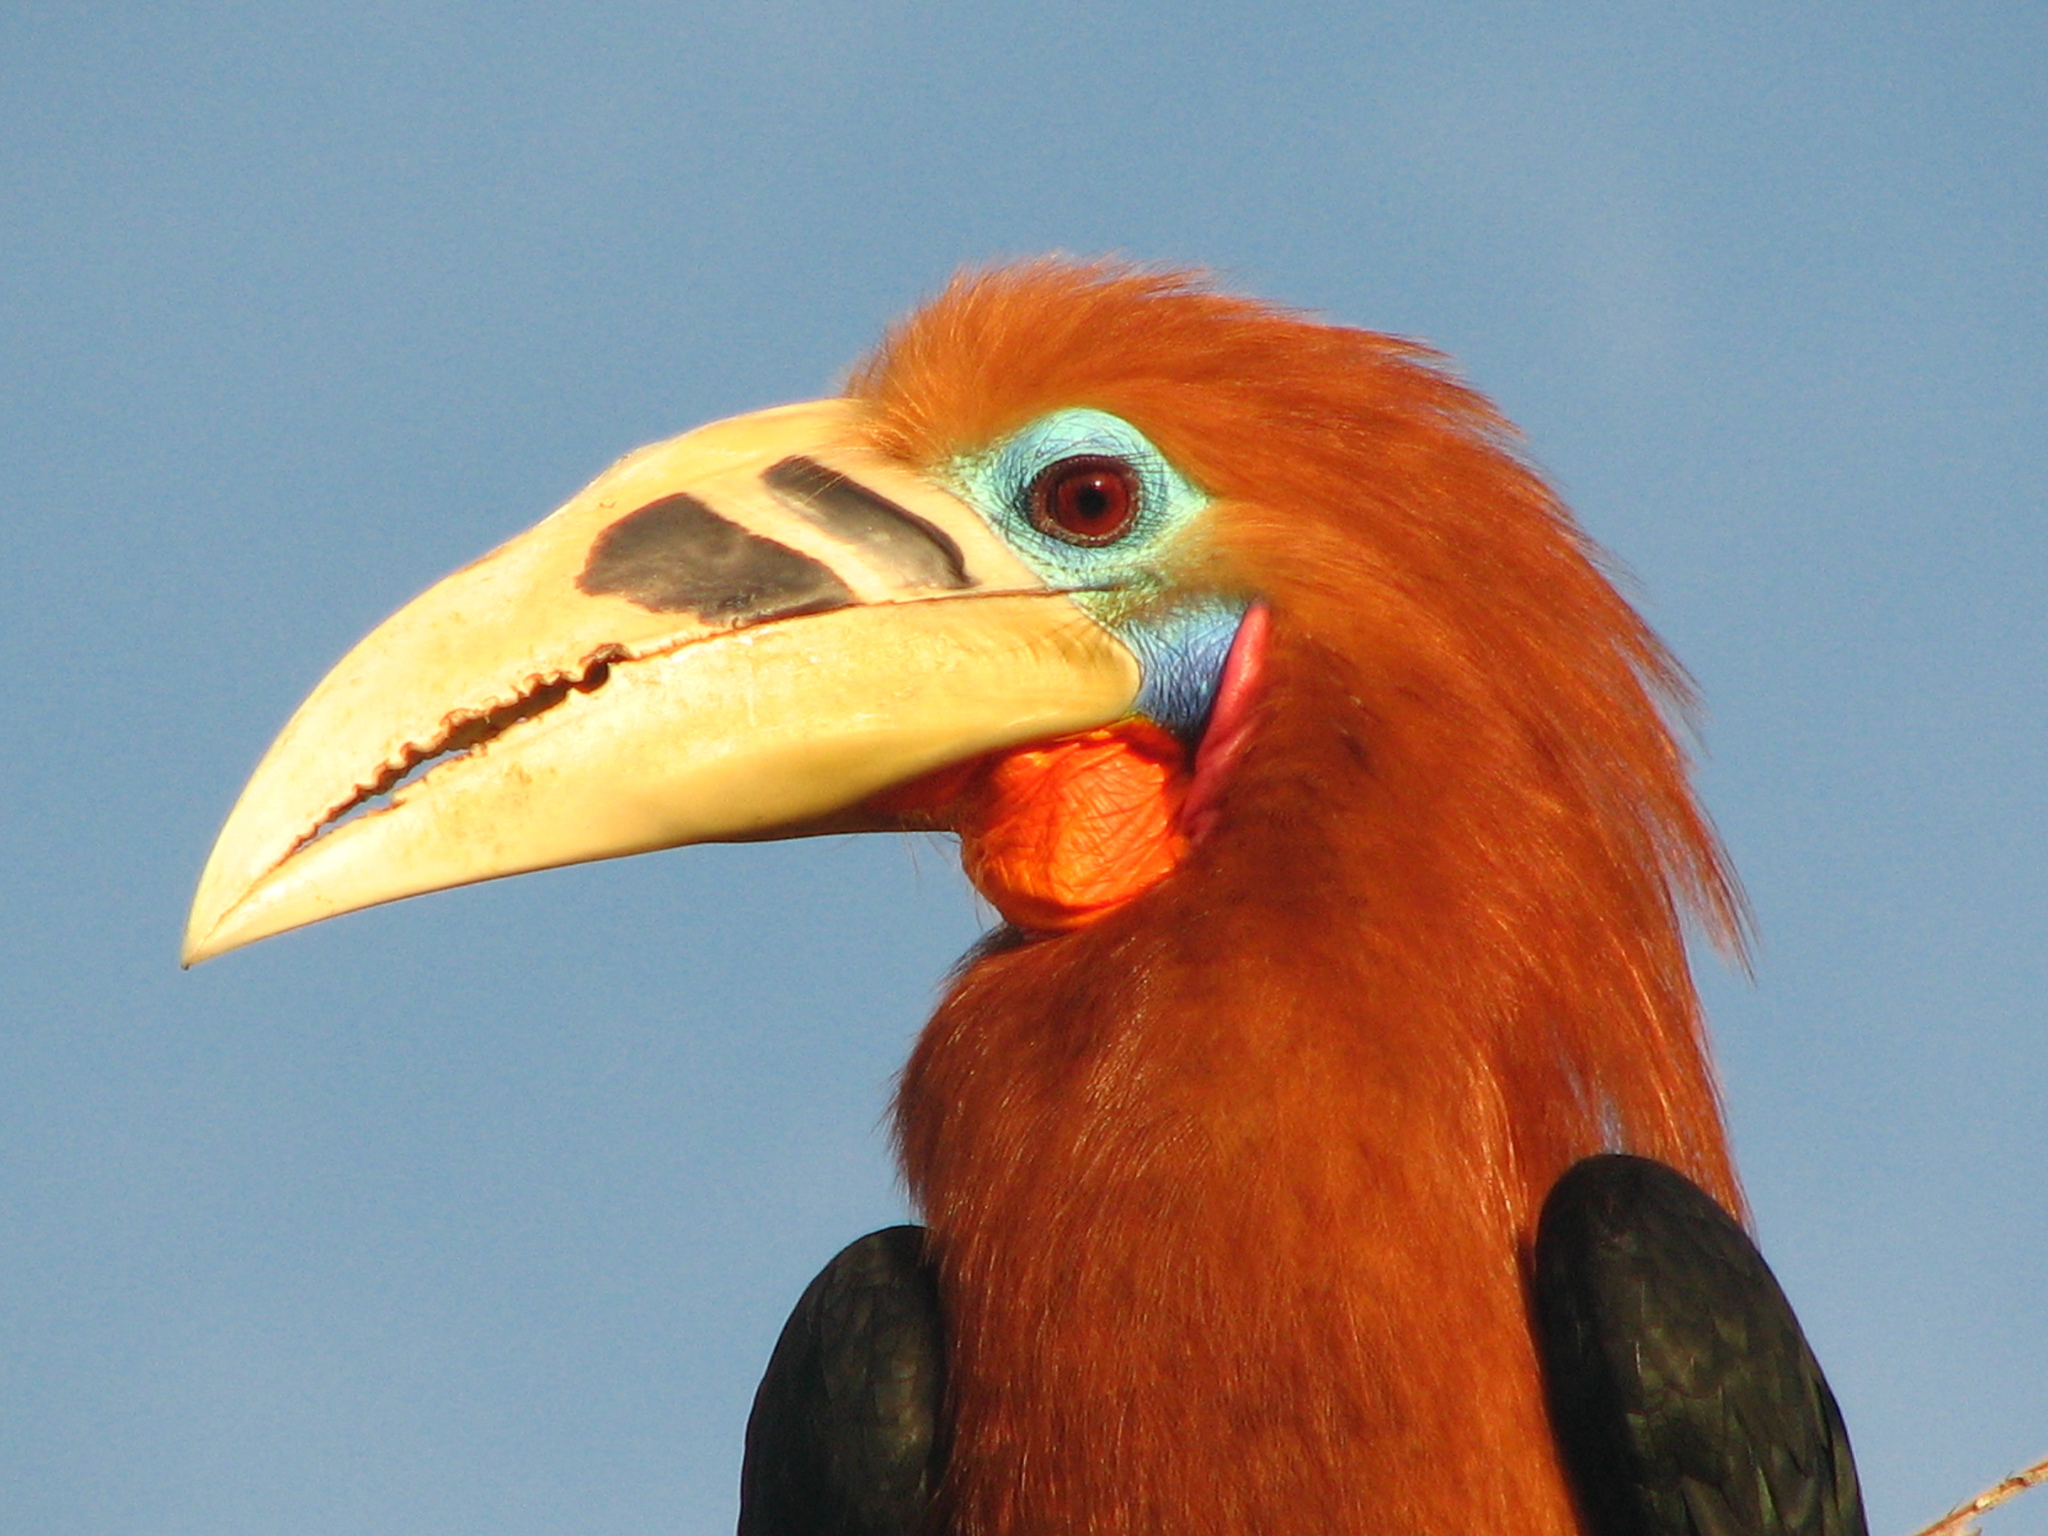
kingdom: Animalia
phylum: Chordata
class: Aves
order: Bucerotiformes
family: Bucerotidae
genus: Aceros
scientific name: Aceros nipalensis
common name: Rufous-necked hornbill
